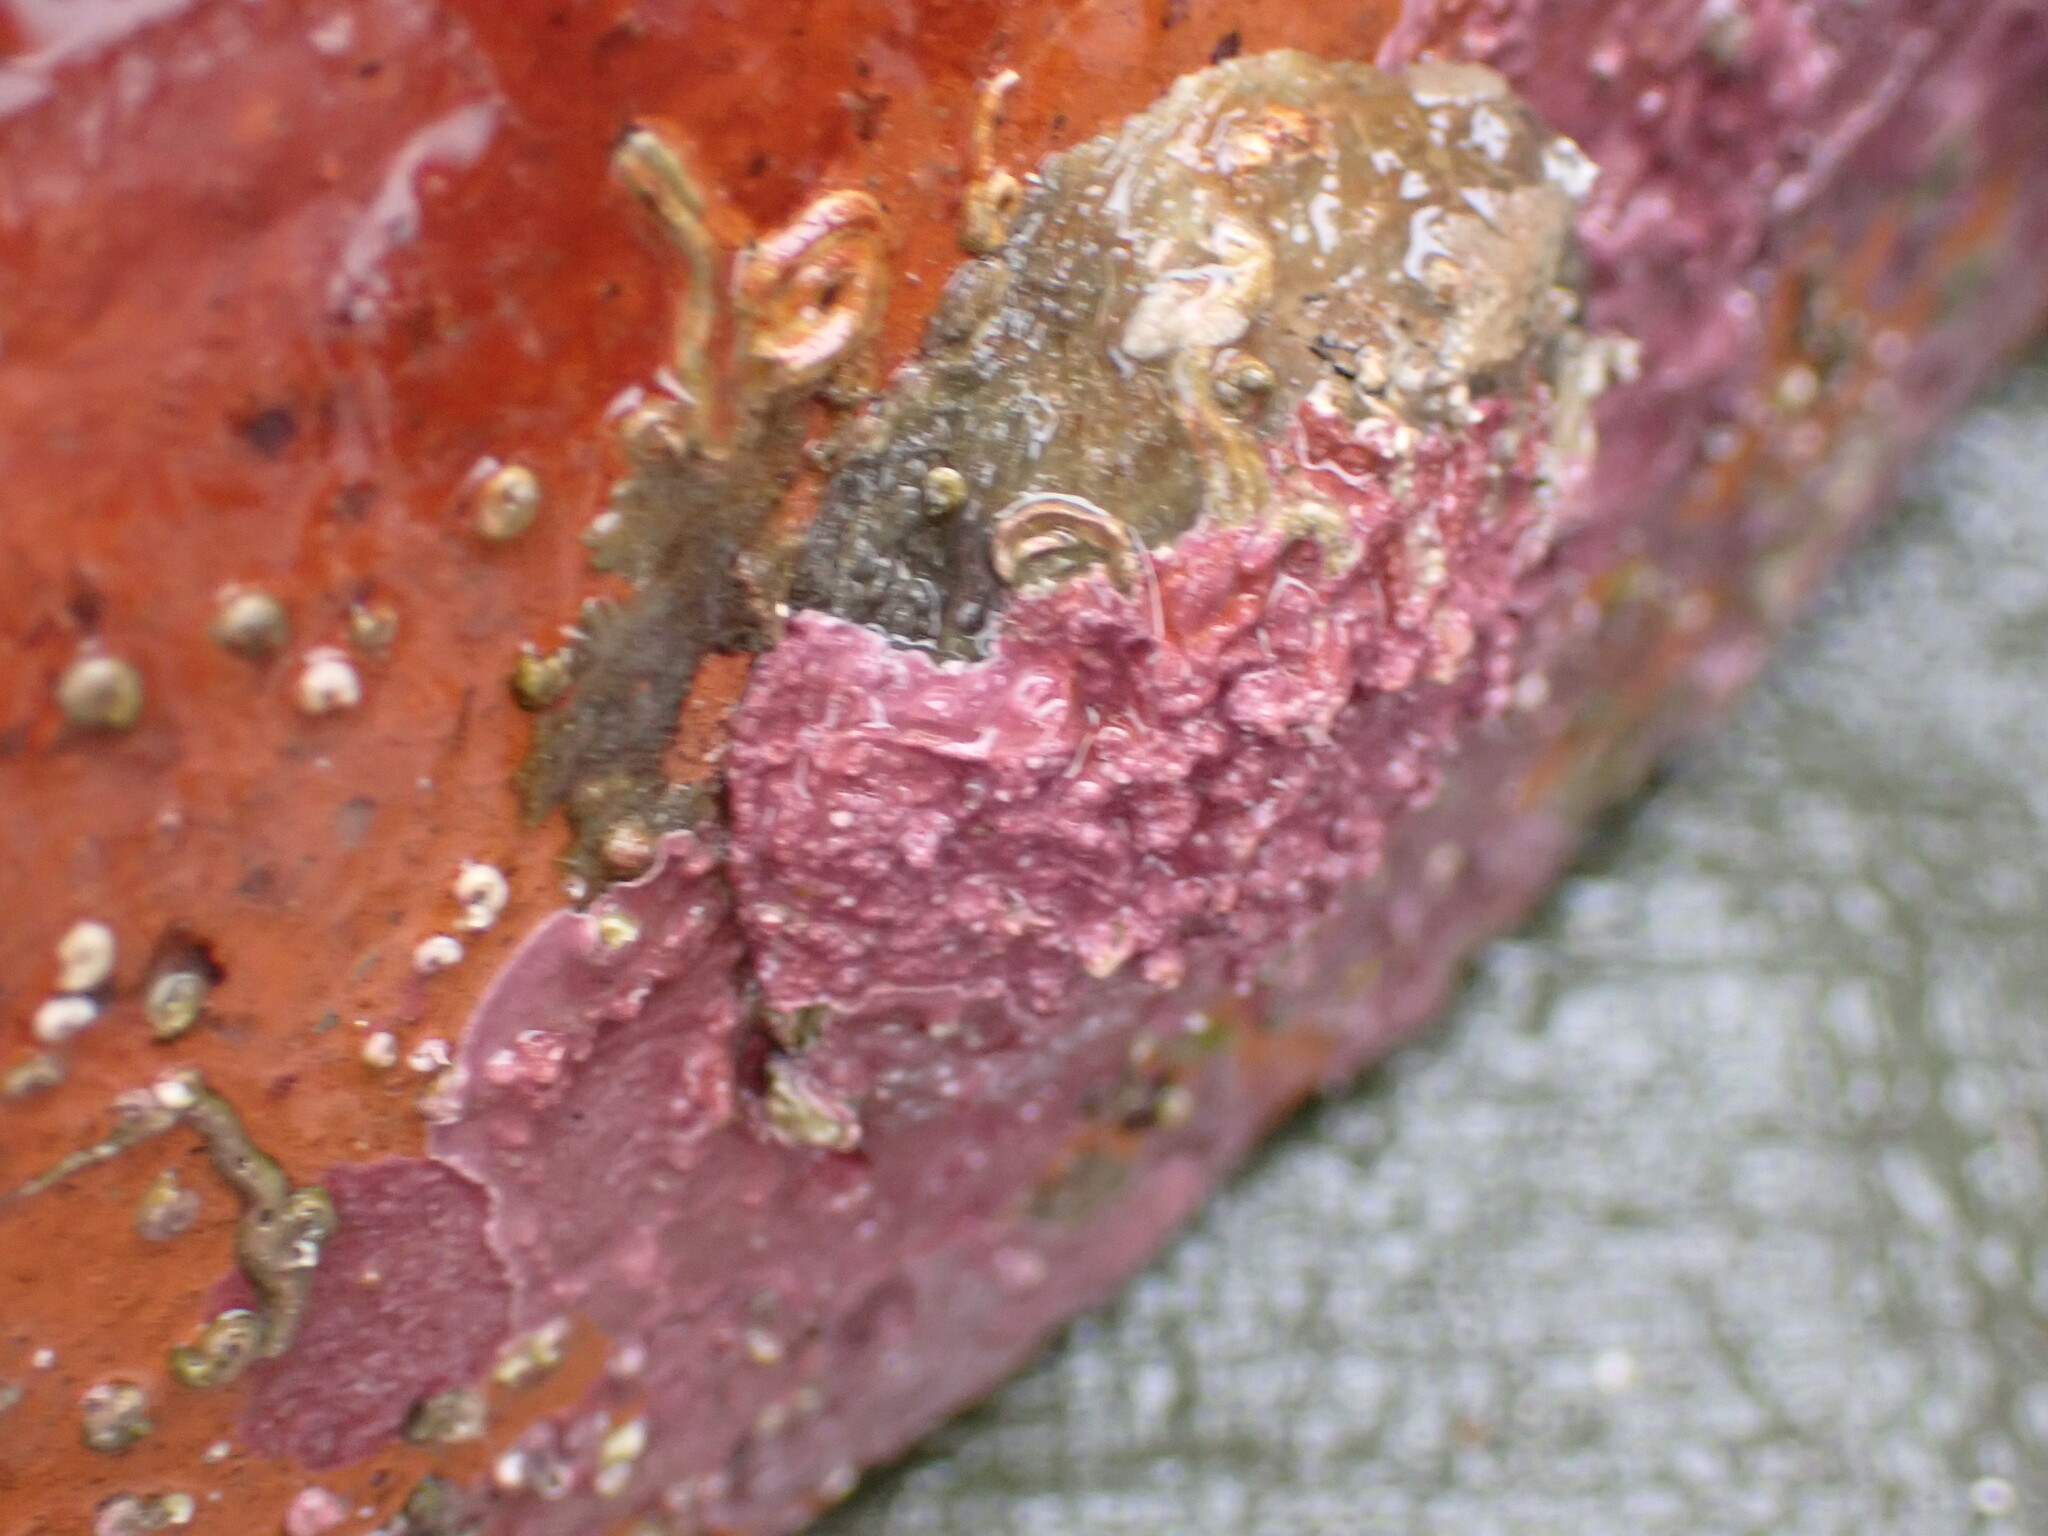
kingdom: Animalia
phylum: Mollusca
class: Bivalvia
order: Pectinida
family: Anomiidae
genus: Monia
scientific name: Monia zelandica
